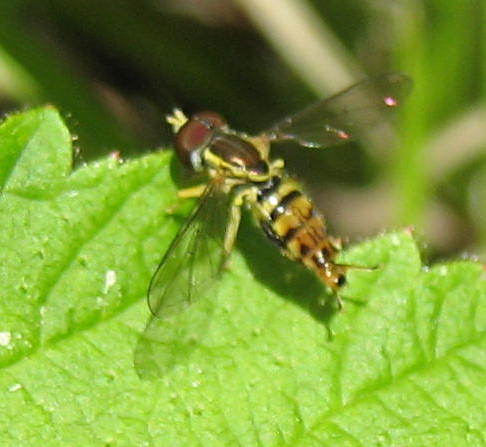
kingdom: Animalia
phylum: Arthropoda
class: Insecta
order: Diptera
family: Syrphidae
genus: Toxomerus
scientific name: Toxomerus geminatus
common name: Eastern calligrapher
